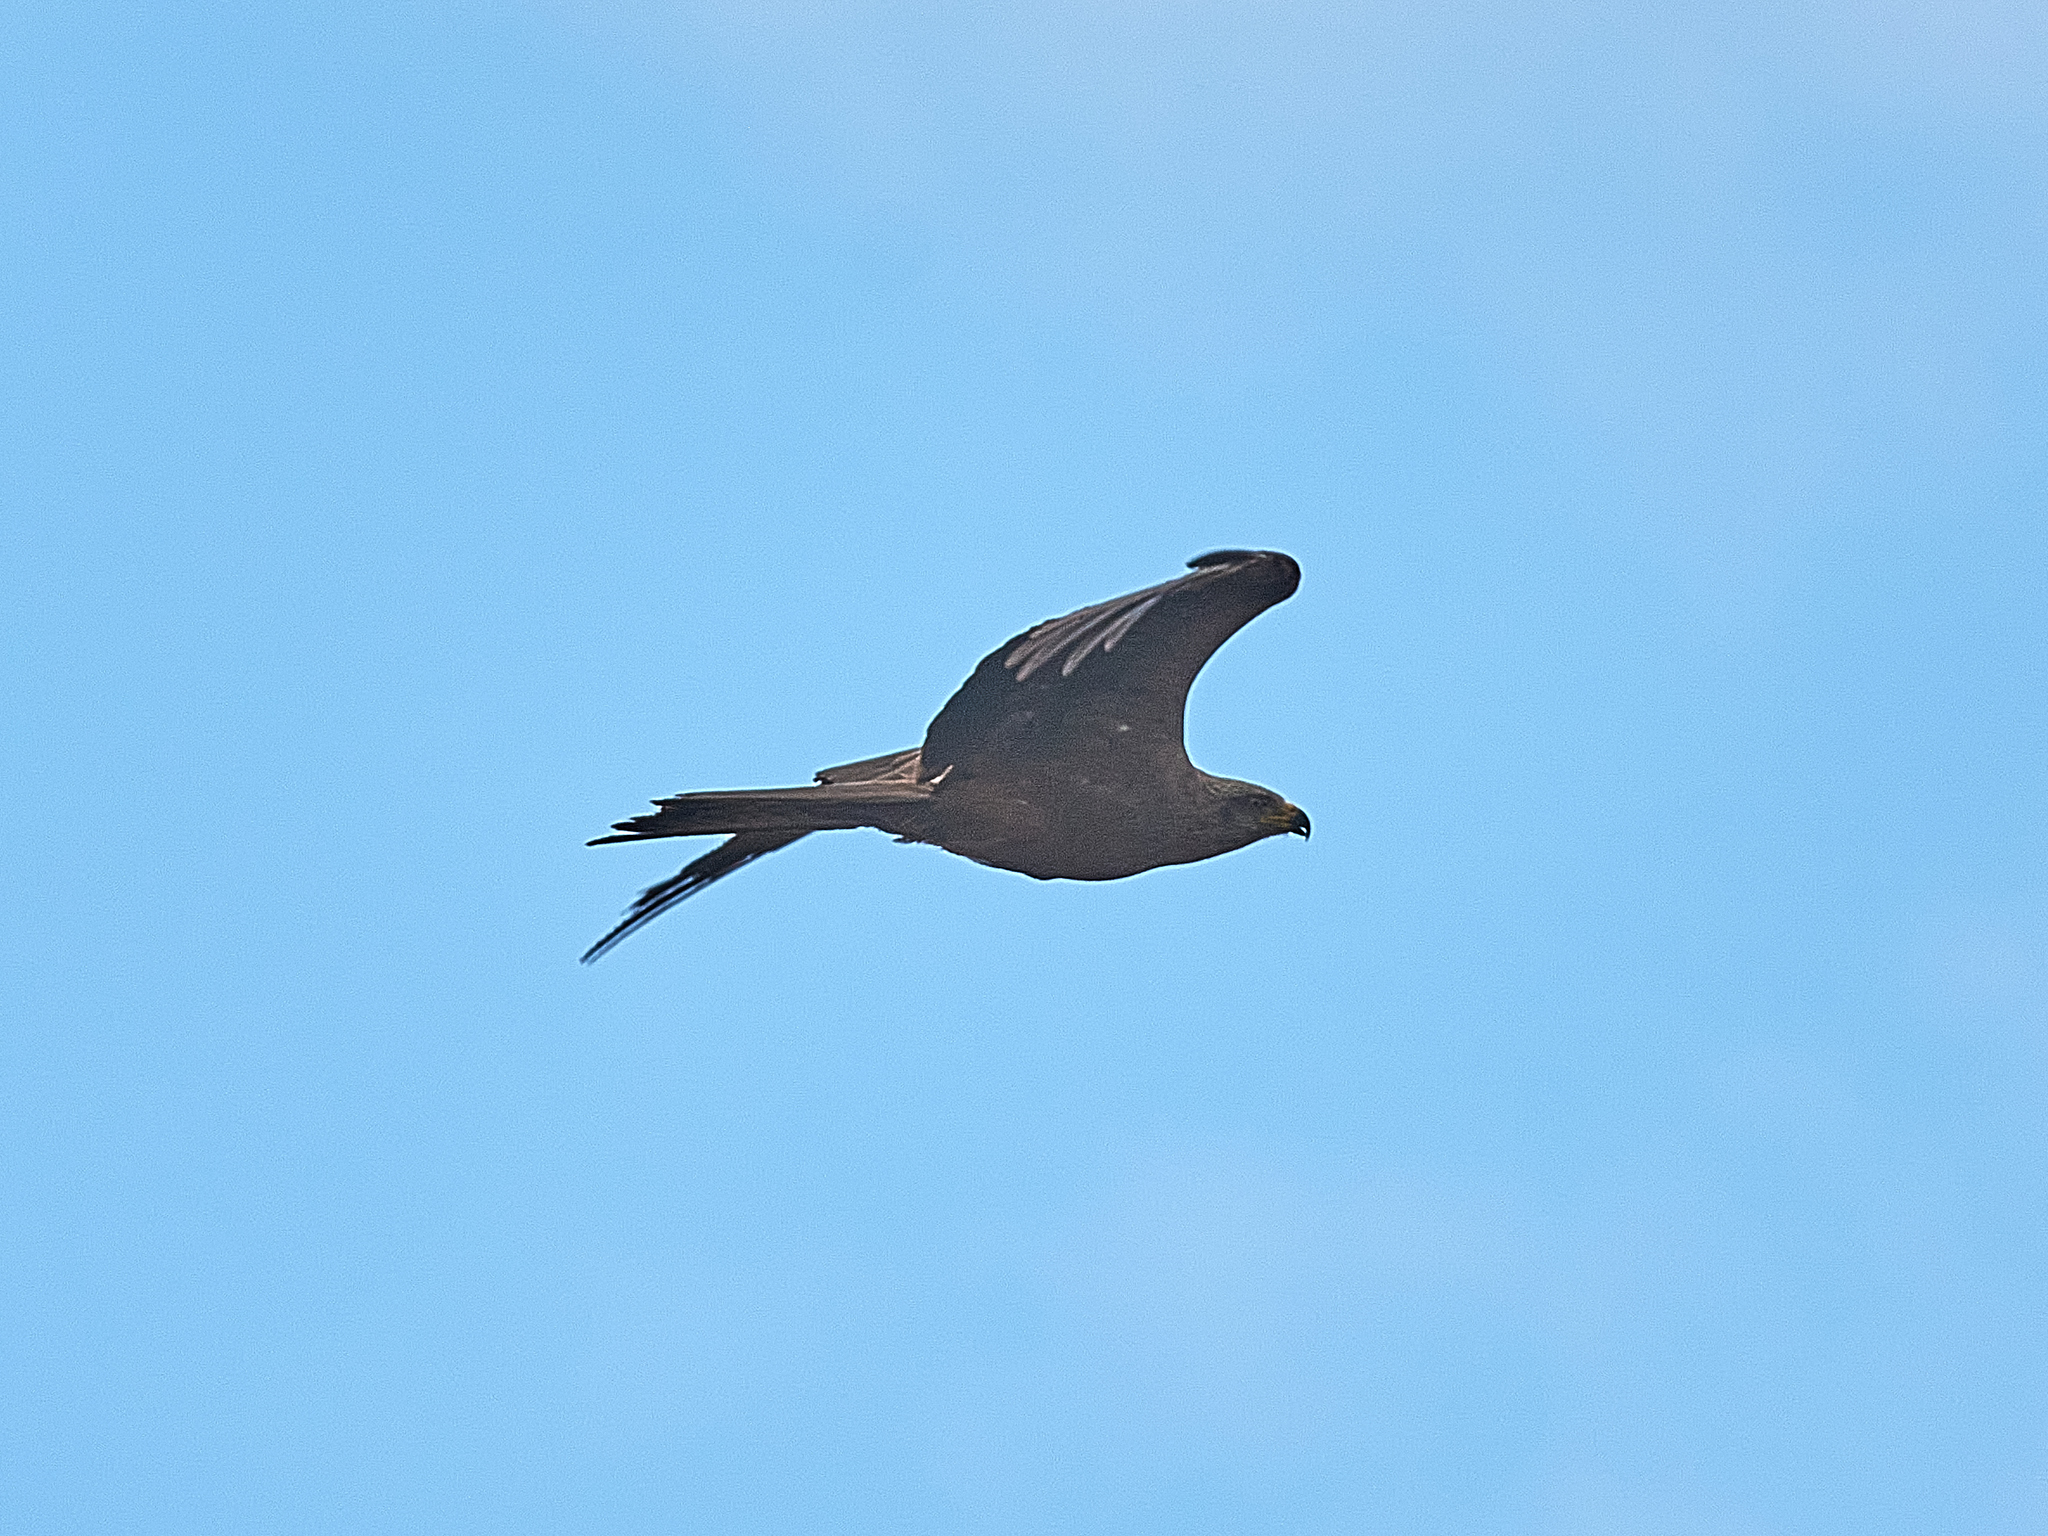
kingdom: Animalia
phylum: Chordata
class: Aves
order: Accipitriformes
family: Accipitridae
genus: Milvus
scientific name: Milvus migrans
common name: Black kite
